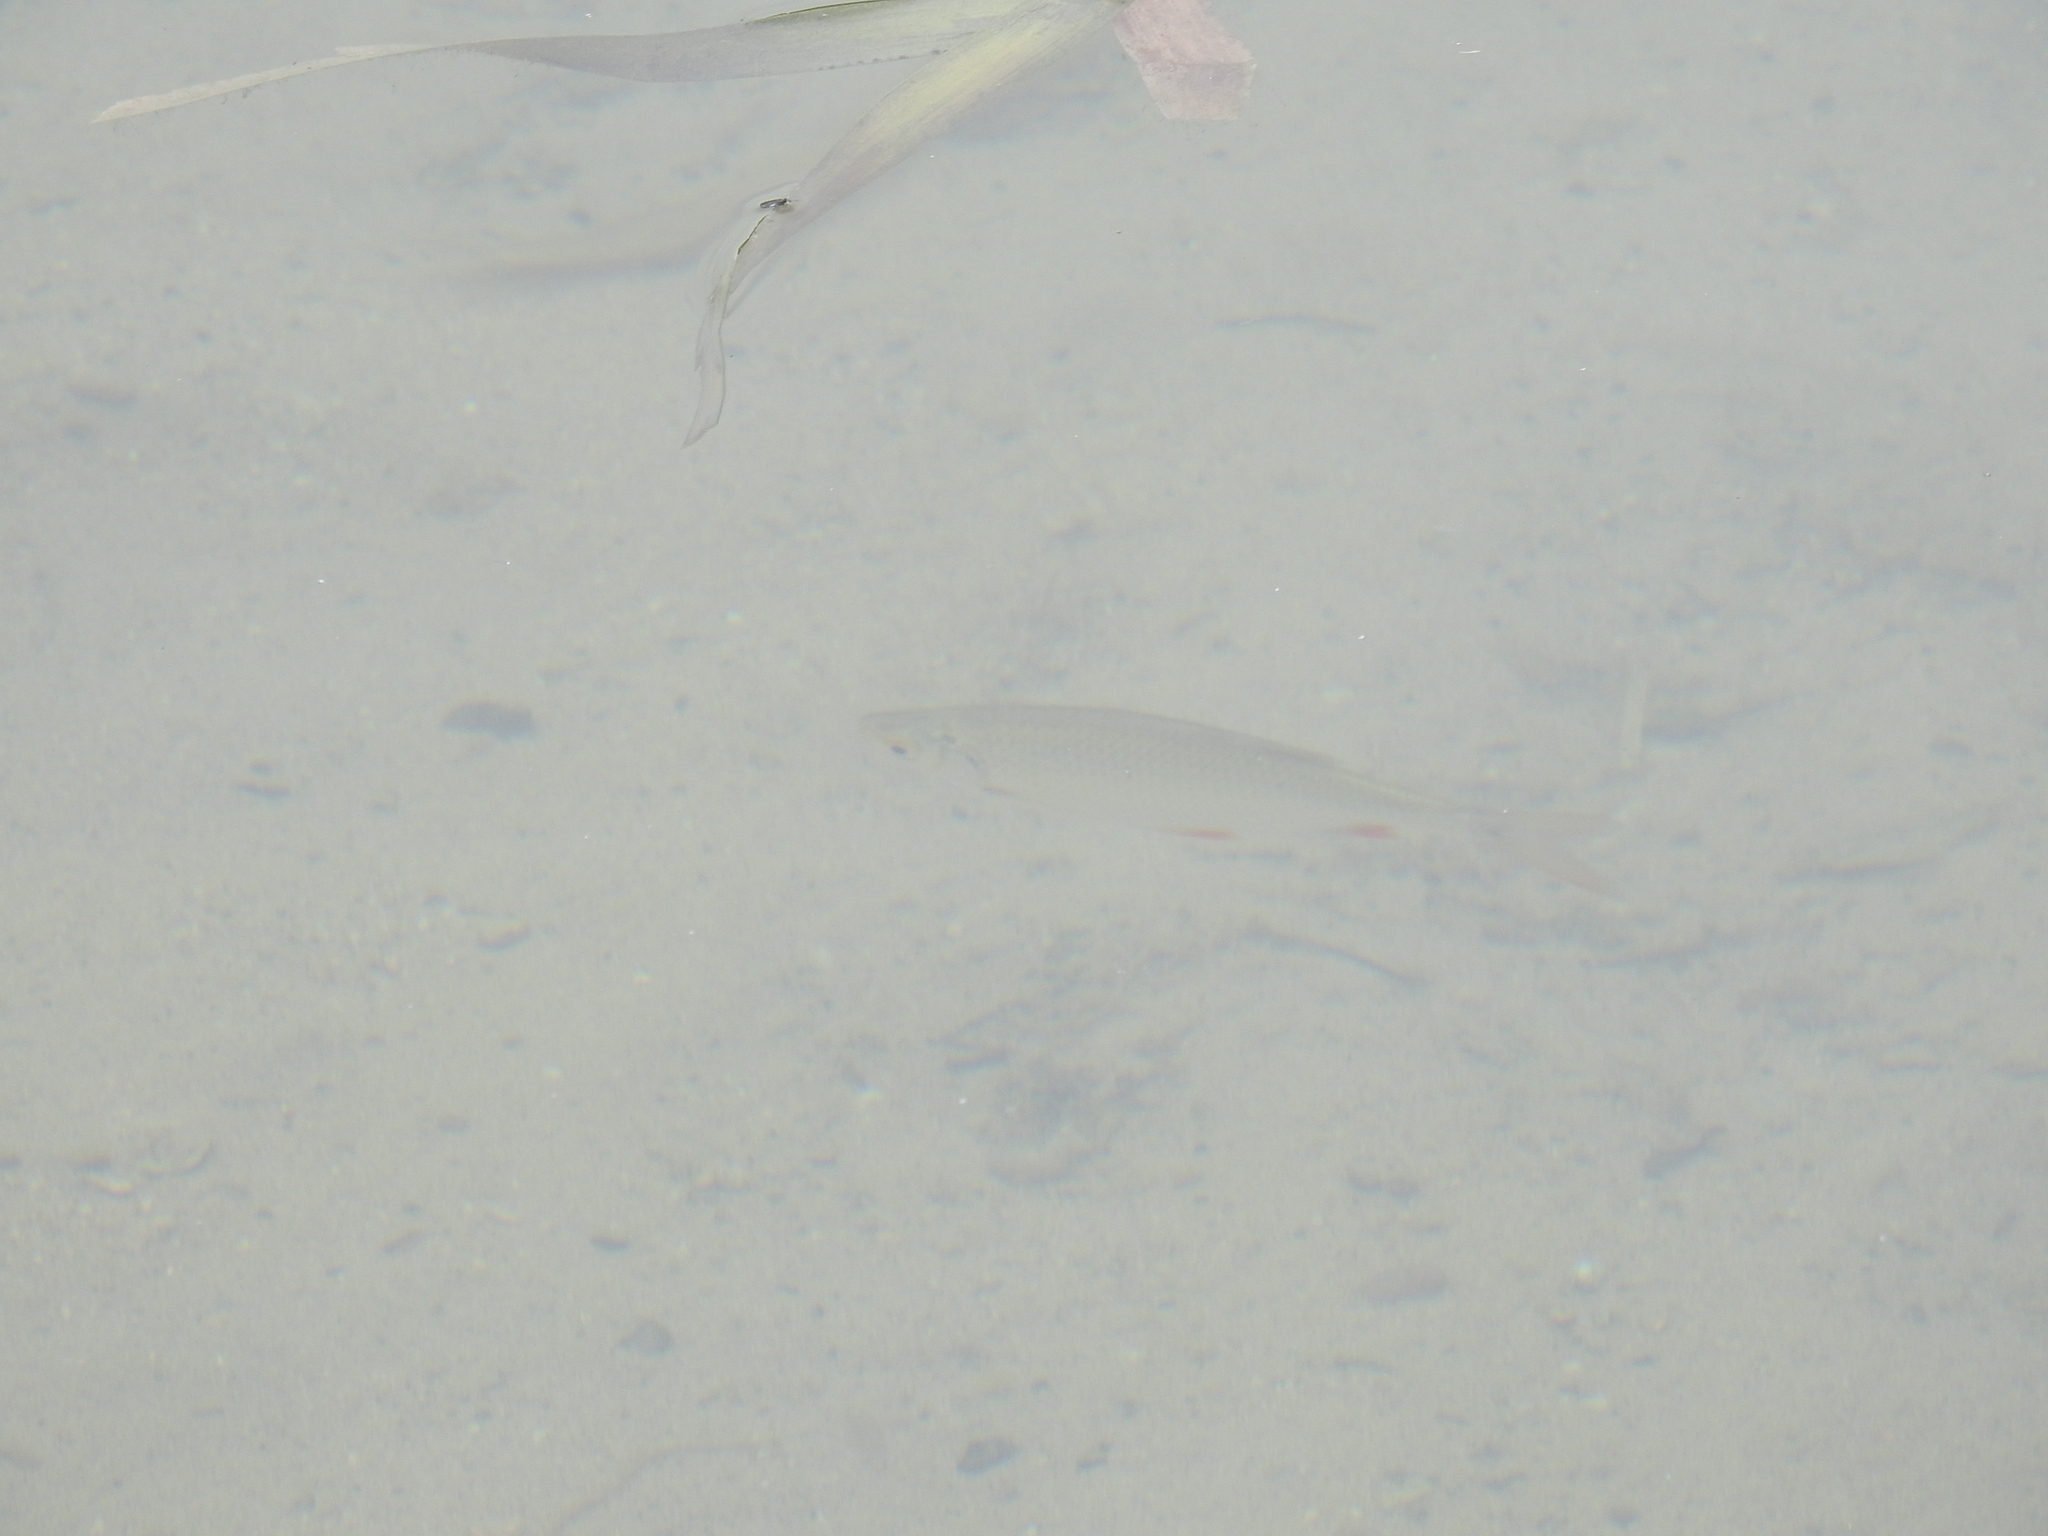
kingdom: Animalia
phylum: Chordata
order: Cypriniformes
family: Cyprinidae
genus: Scardinius
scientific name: Scardinius erythrophthalmus
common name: Rudd
